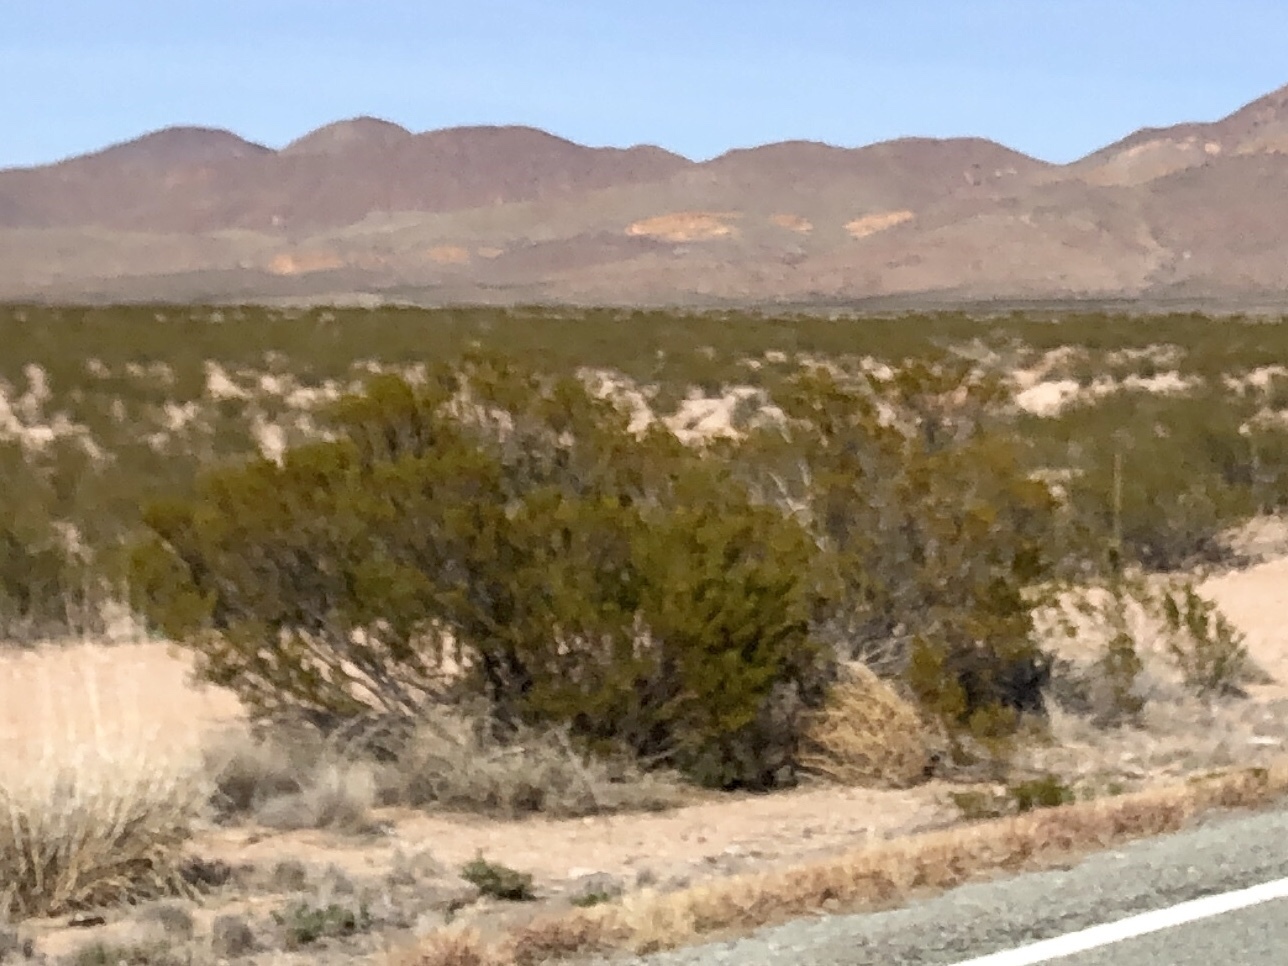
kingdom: Plantae
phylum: Tracheophyta
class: Magnoliopsida
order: Zygophyllales
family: Zygophyllaceae
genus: Larrea
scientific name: Larrea tridentata
